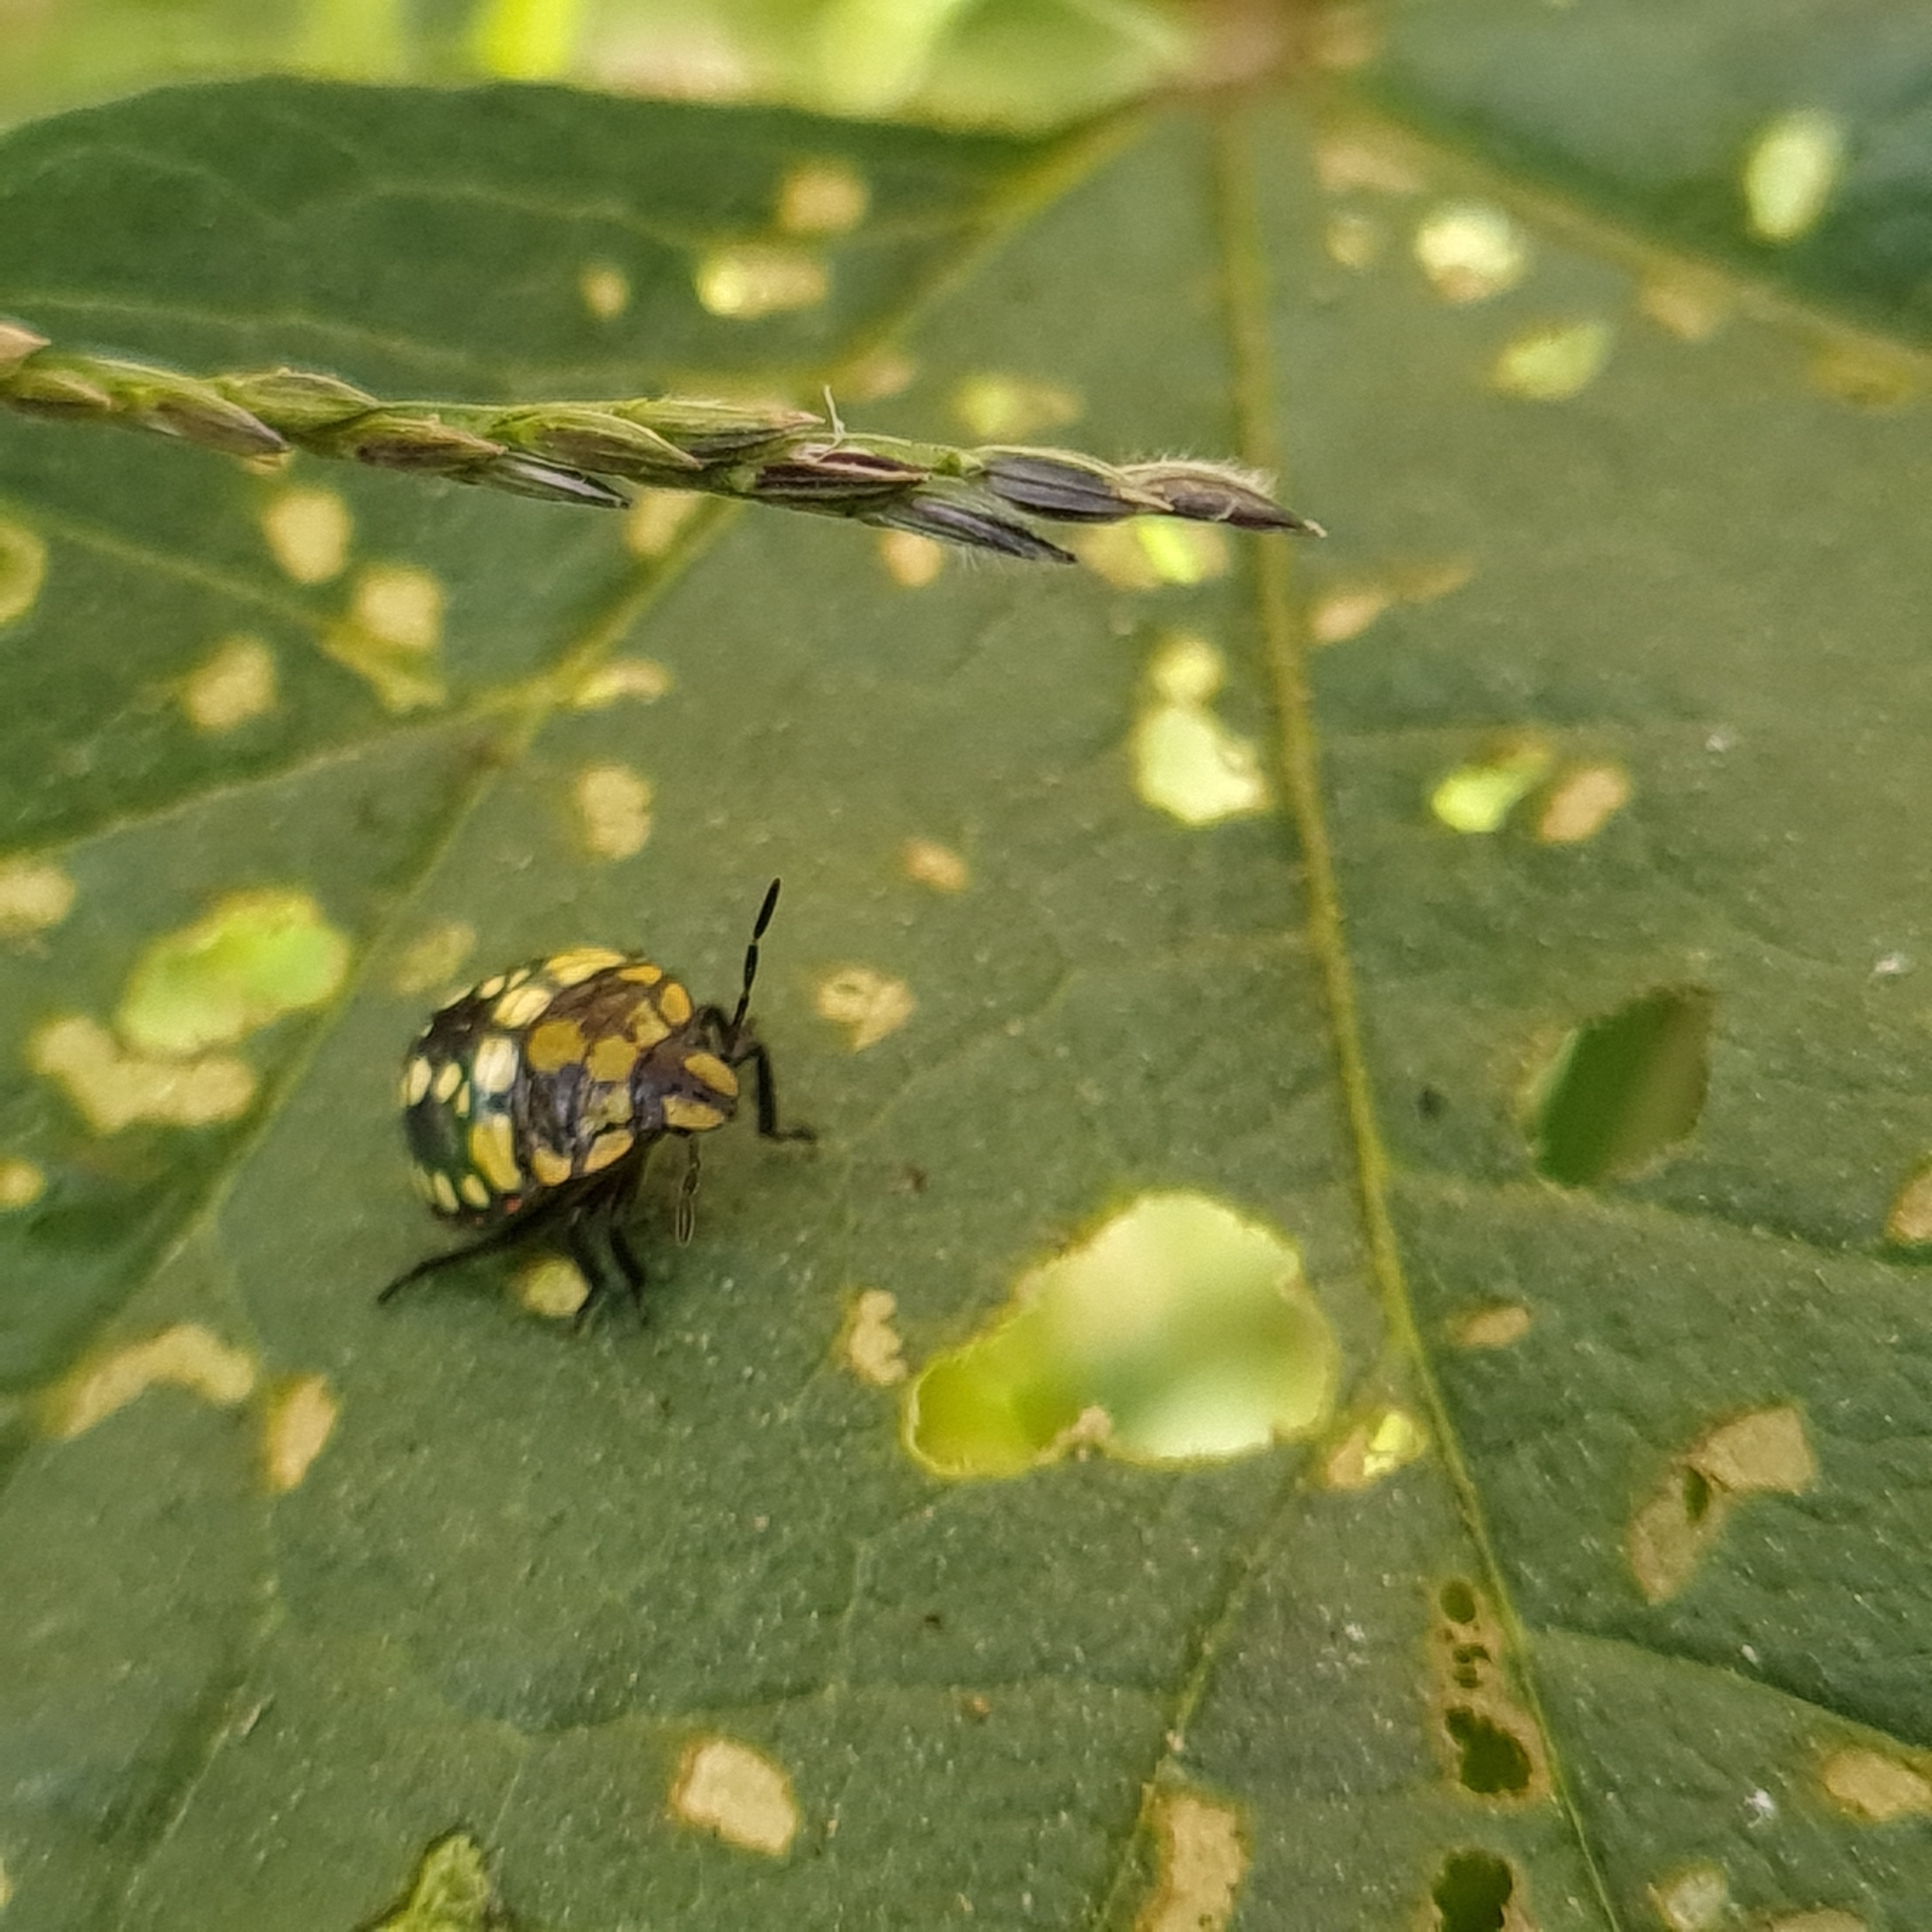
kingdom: Animalia
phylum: Arthropoda
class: Insecta
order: Hemiptera
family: Pentatomidae
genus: Nezara
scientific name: Nezara viridula
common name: Southern green stink bug
